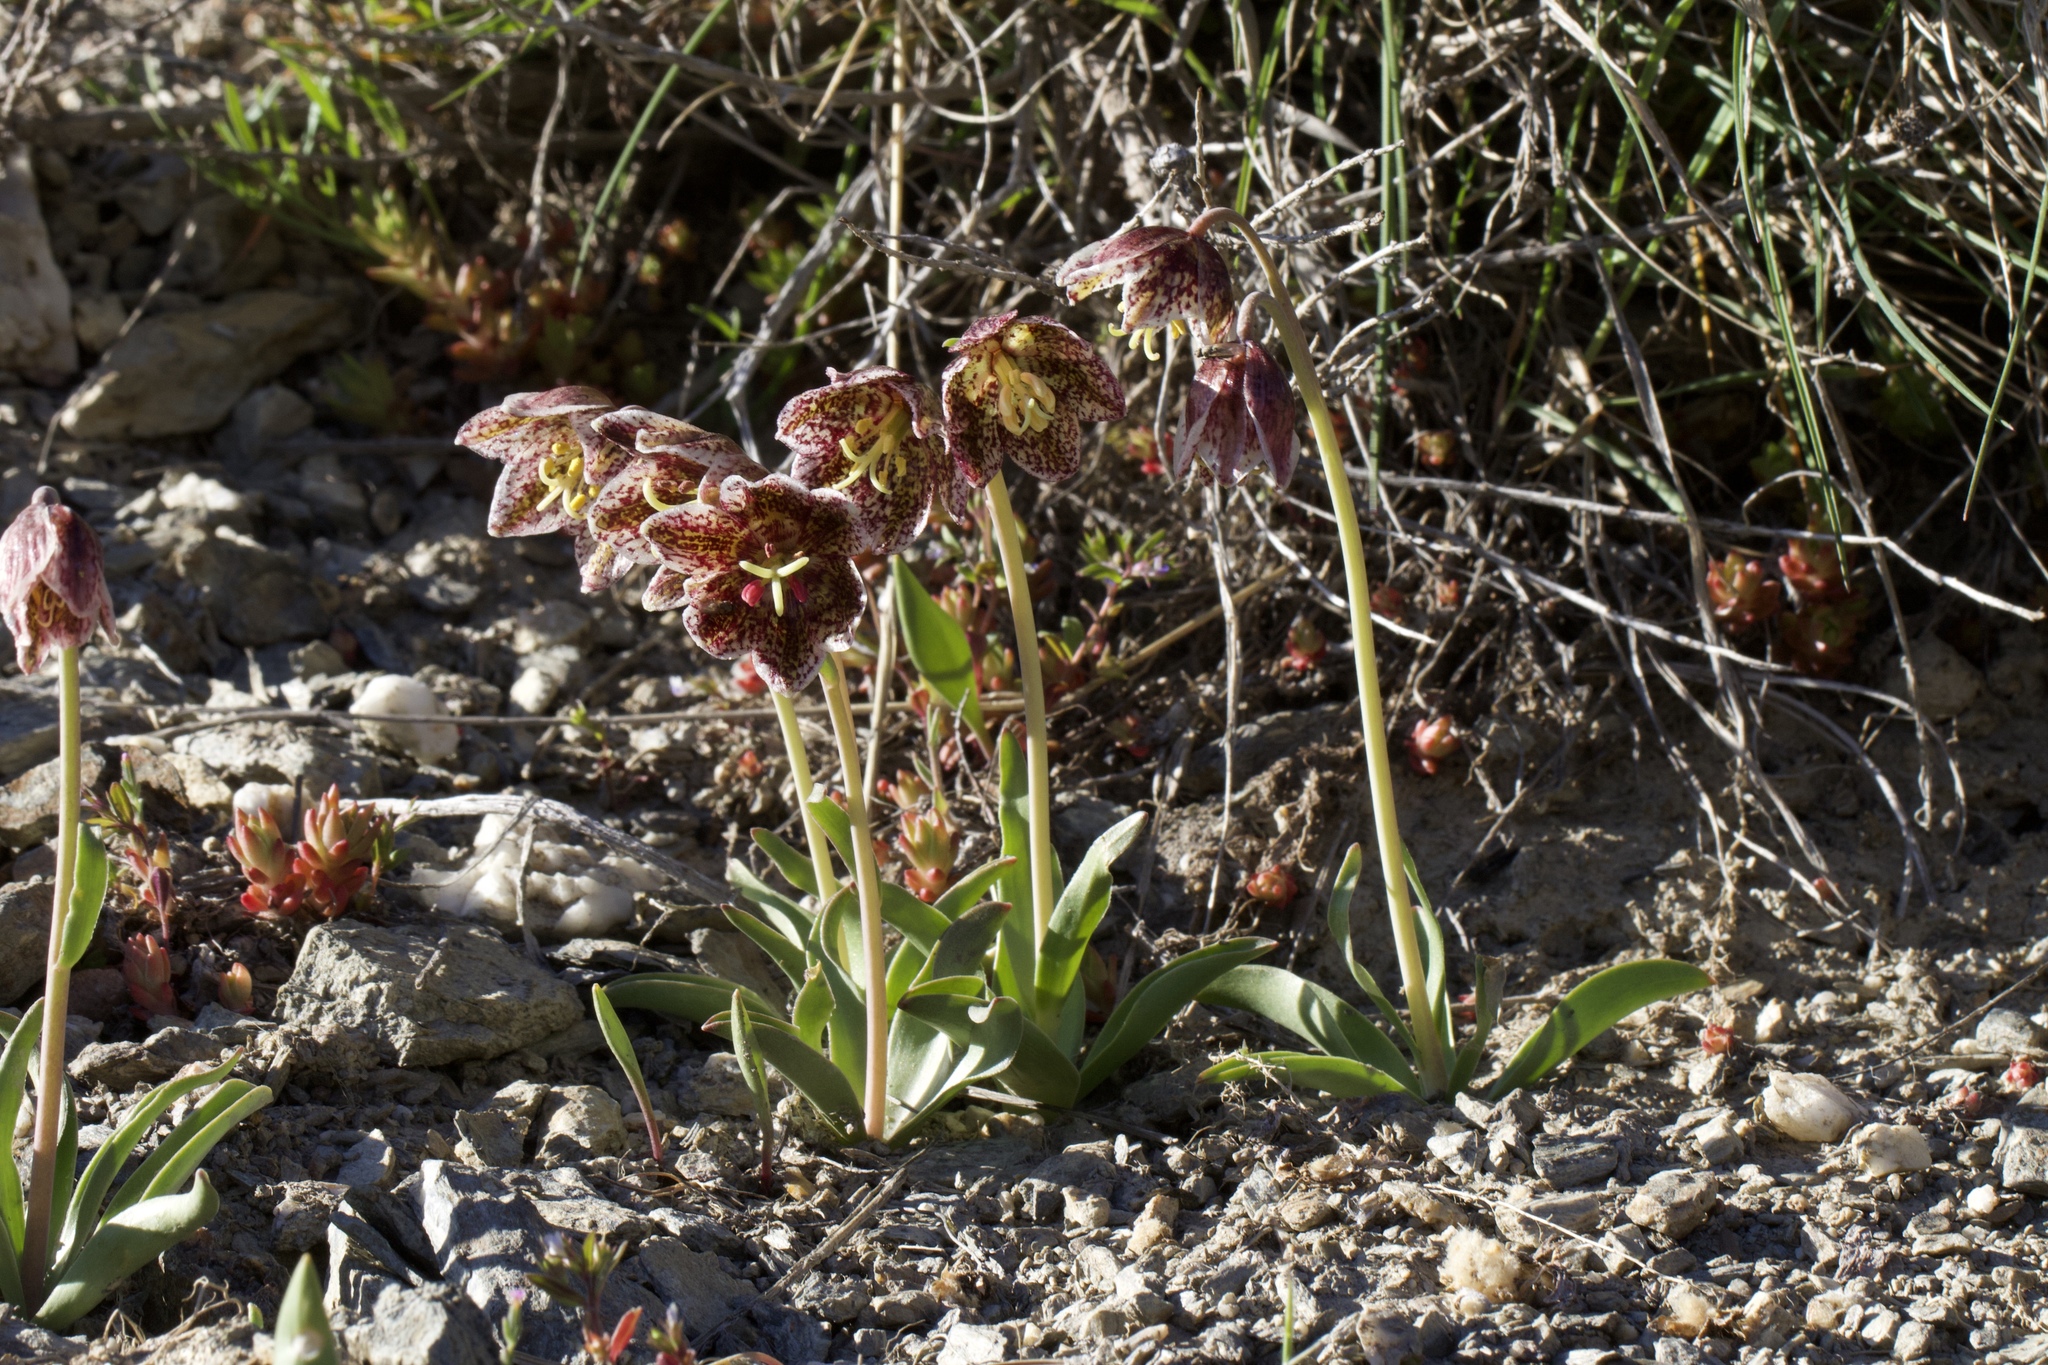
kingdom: Plantae
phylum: Tracheophyta
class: Liliopsida
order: Liliales
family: Liliaceae
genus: Fritillaria
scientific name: Fritillaria purdyi
